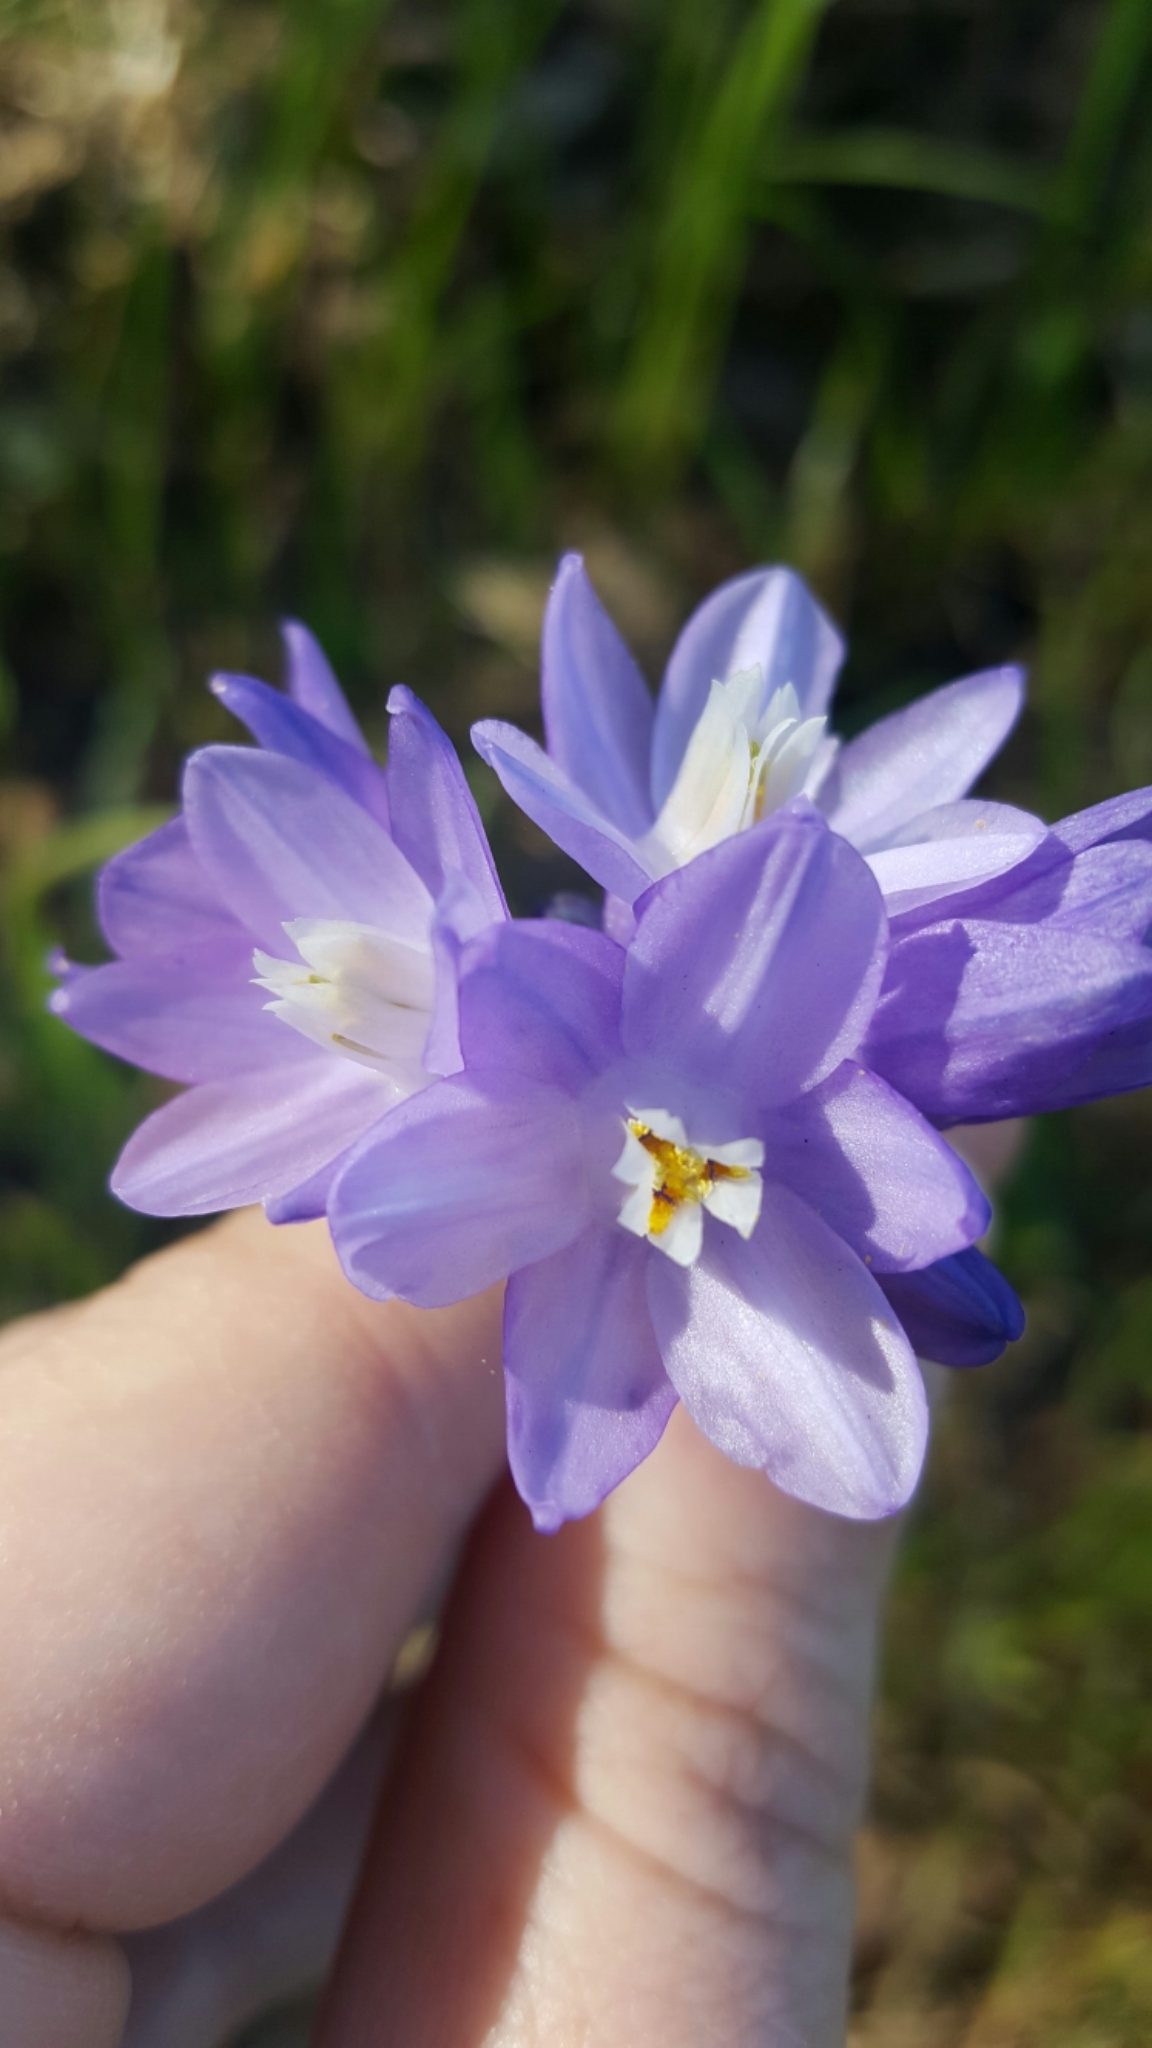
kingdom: Plantae
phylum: Tracheophyta
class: Liliopsida
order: Asparagales
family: Asparagaceae
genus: Dipterostemon
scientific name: Dipterostemon capitatus
